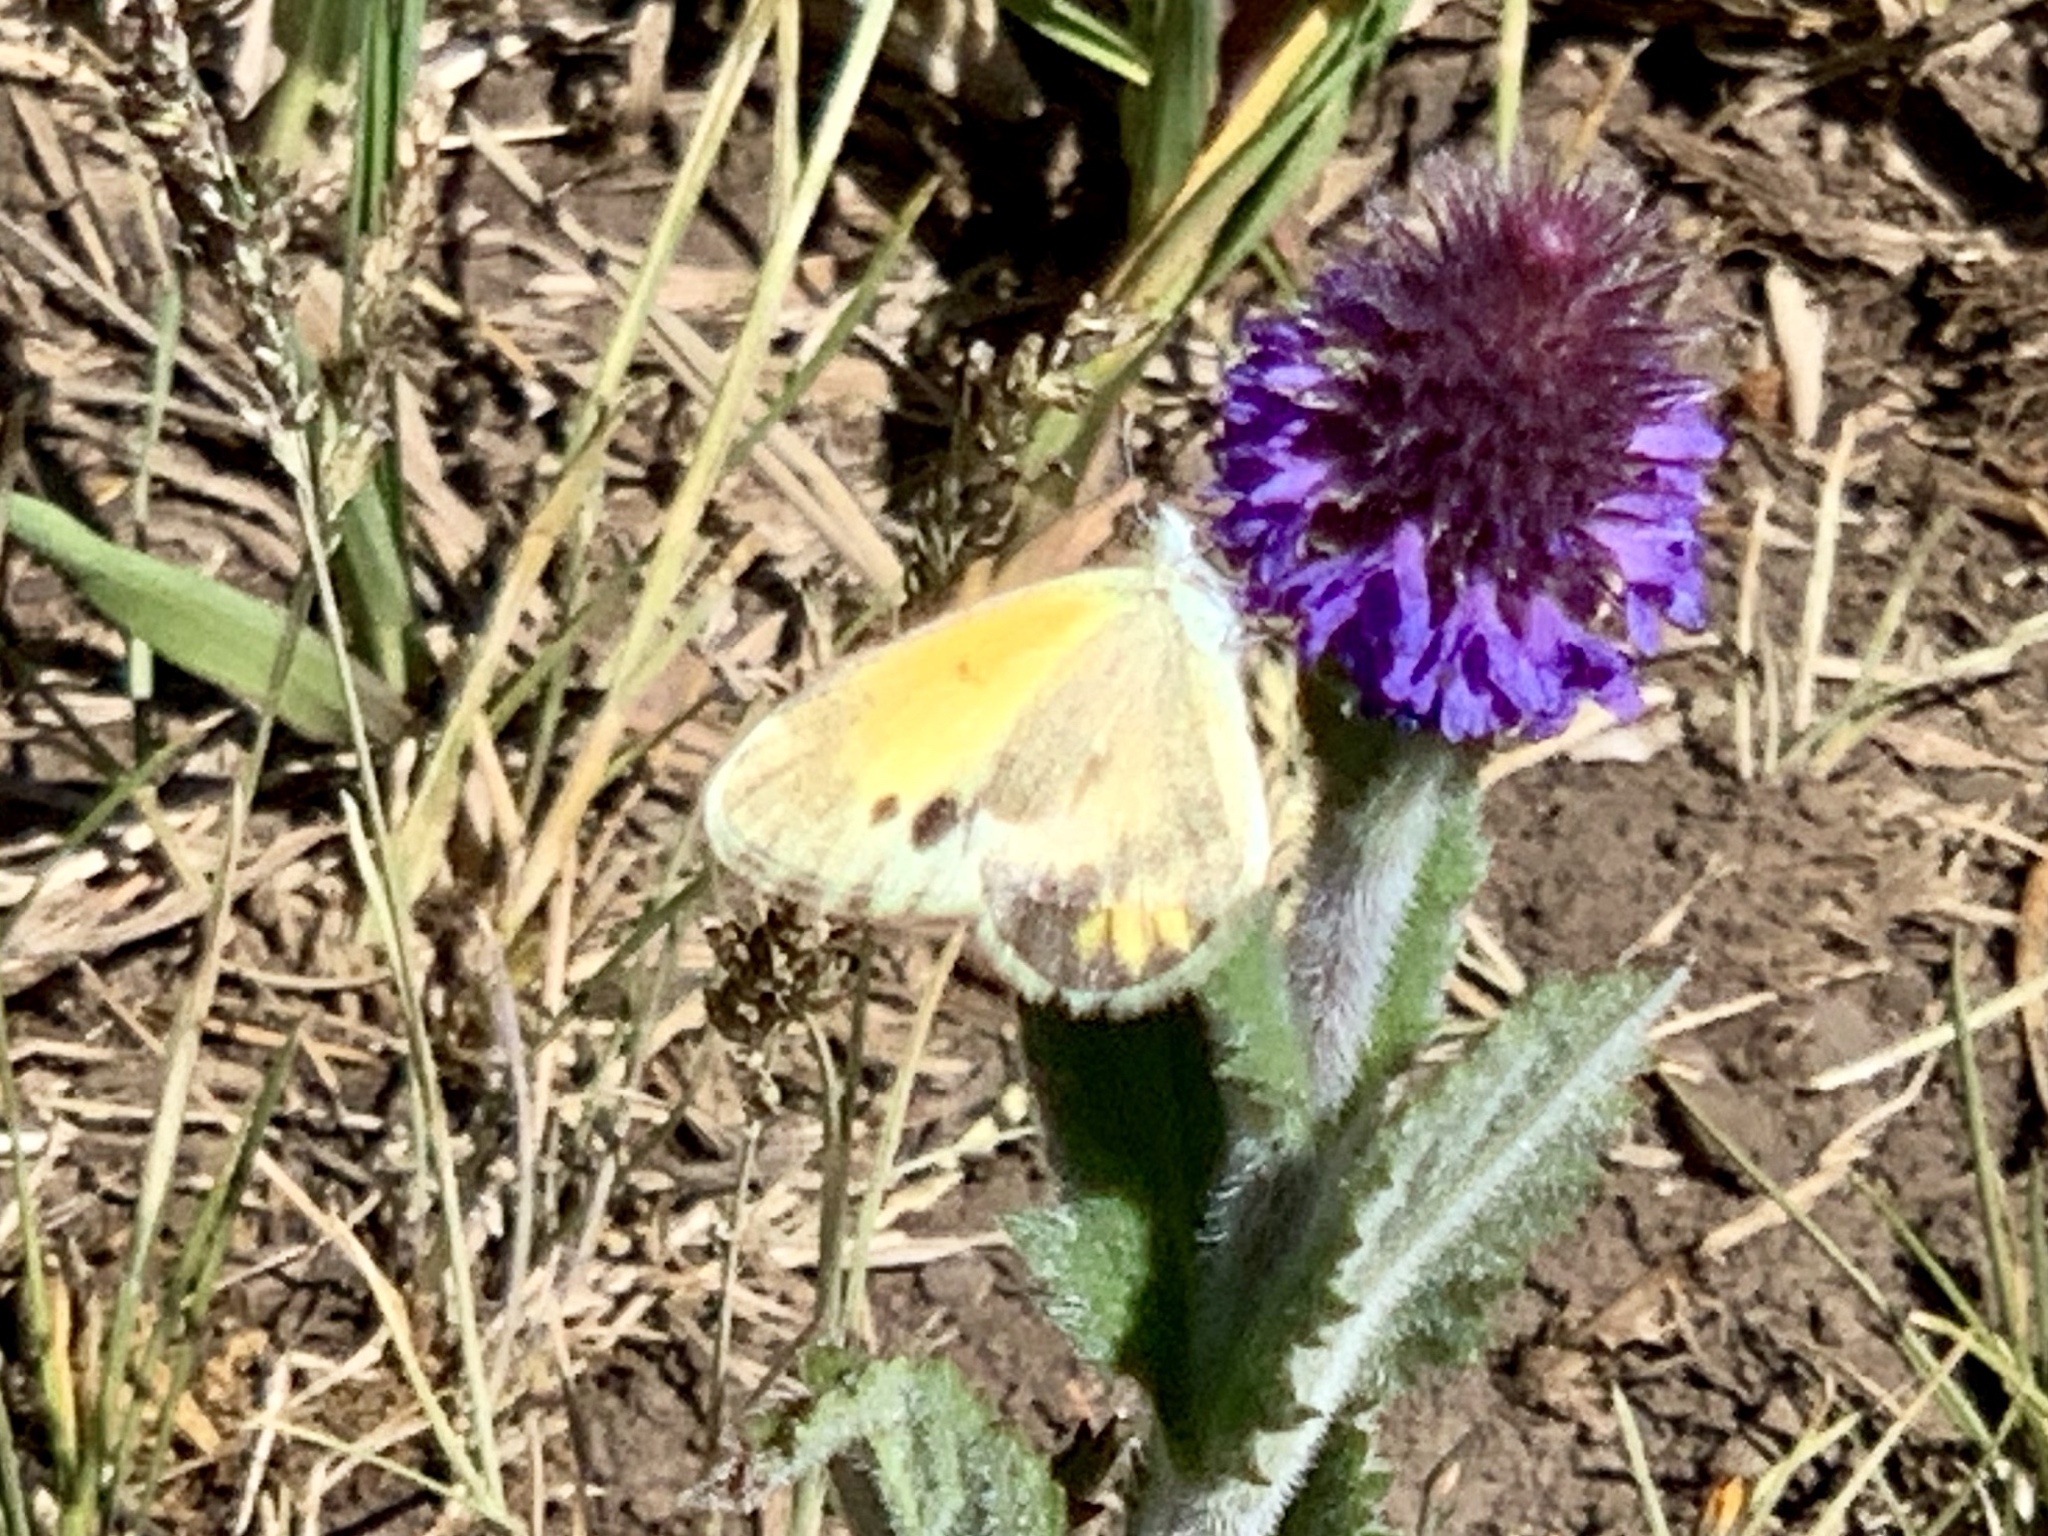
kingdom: Animalia
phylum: Arthropoda
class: Insecta
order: Lepidoptera
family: Pieridae
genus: Nathalis
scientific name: Nathalis iole
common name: Dainty sulphur
